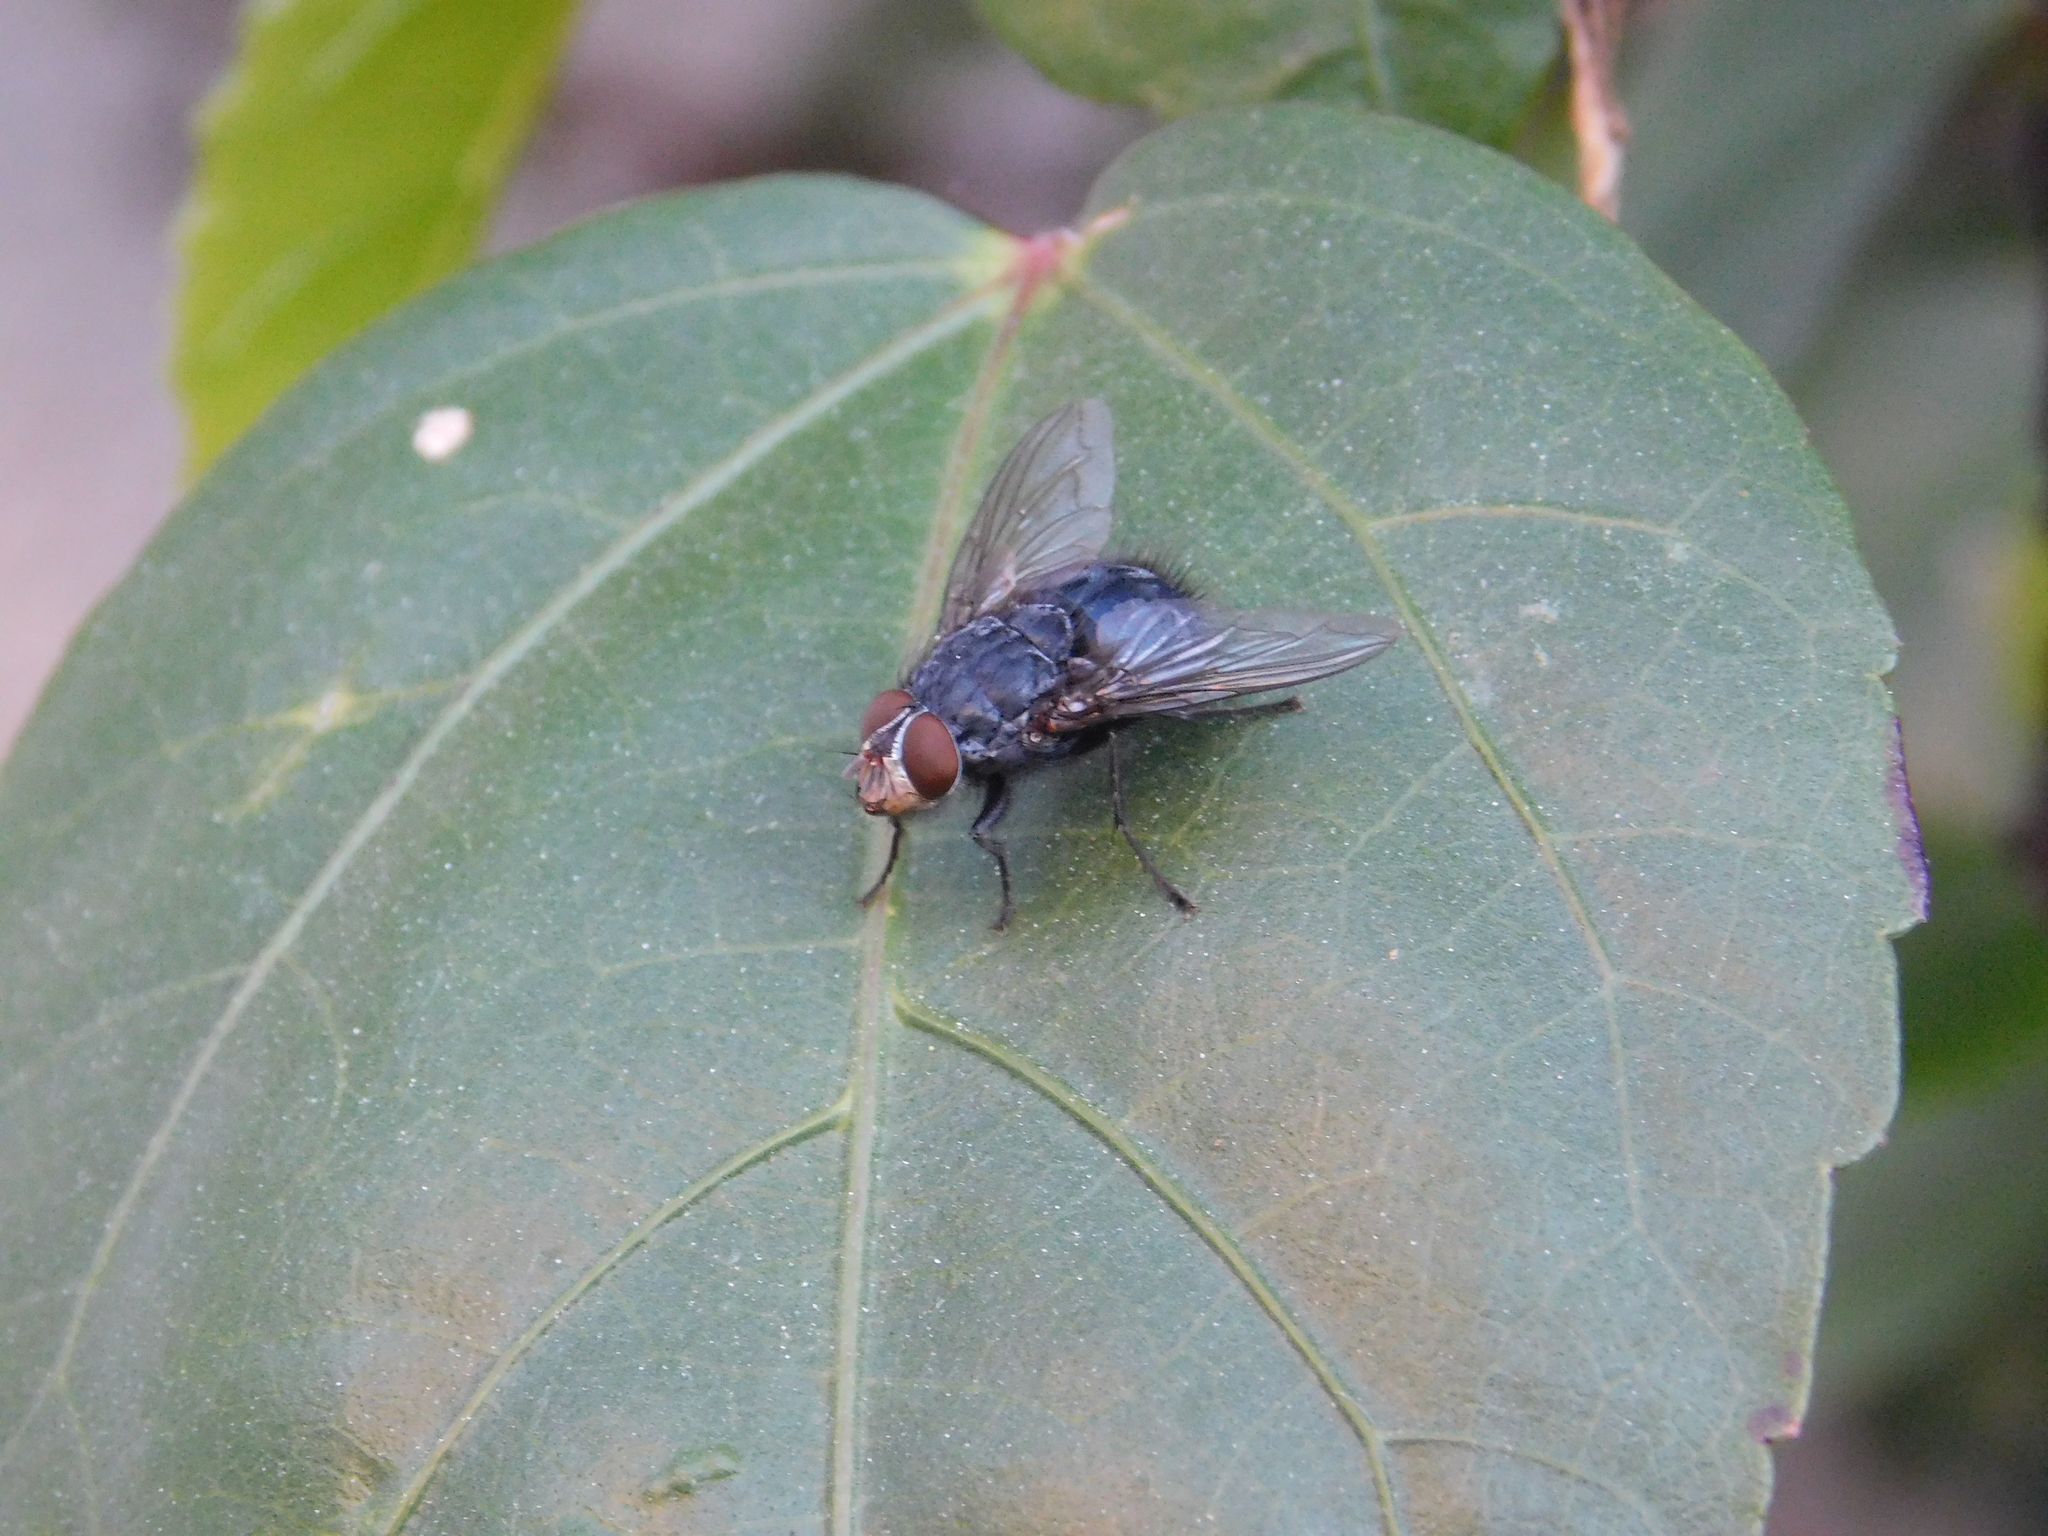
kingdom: Animalia
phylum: Arthropoda
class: Insecta
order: Diptera
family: Calliphoridae
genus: Calliphora
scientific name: Calliphora vicina
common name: Common blow flie
